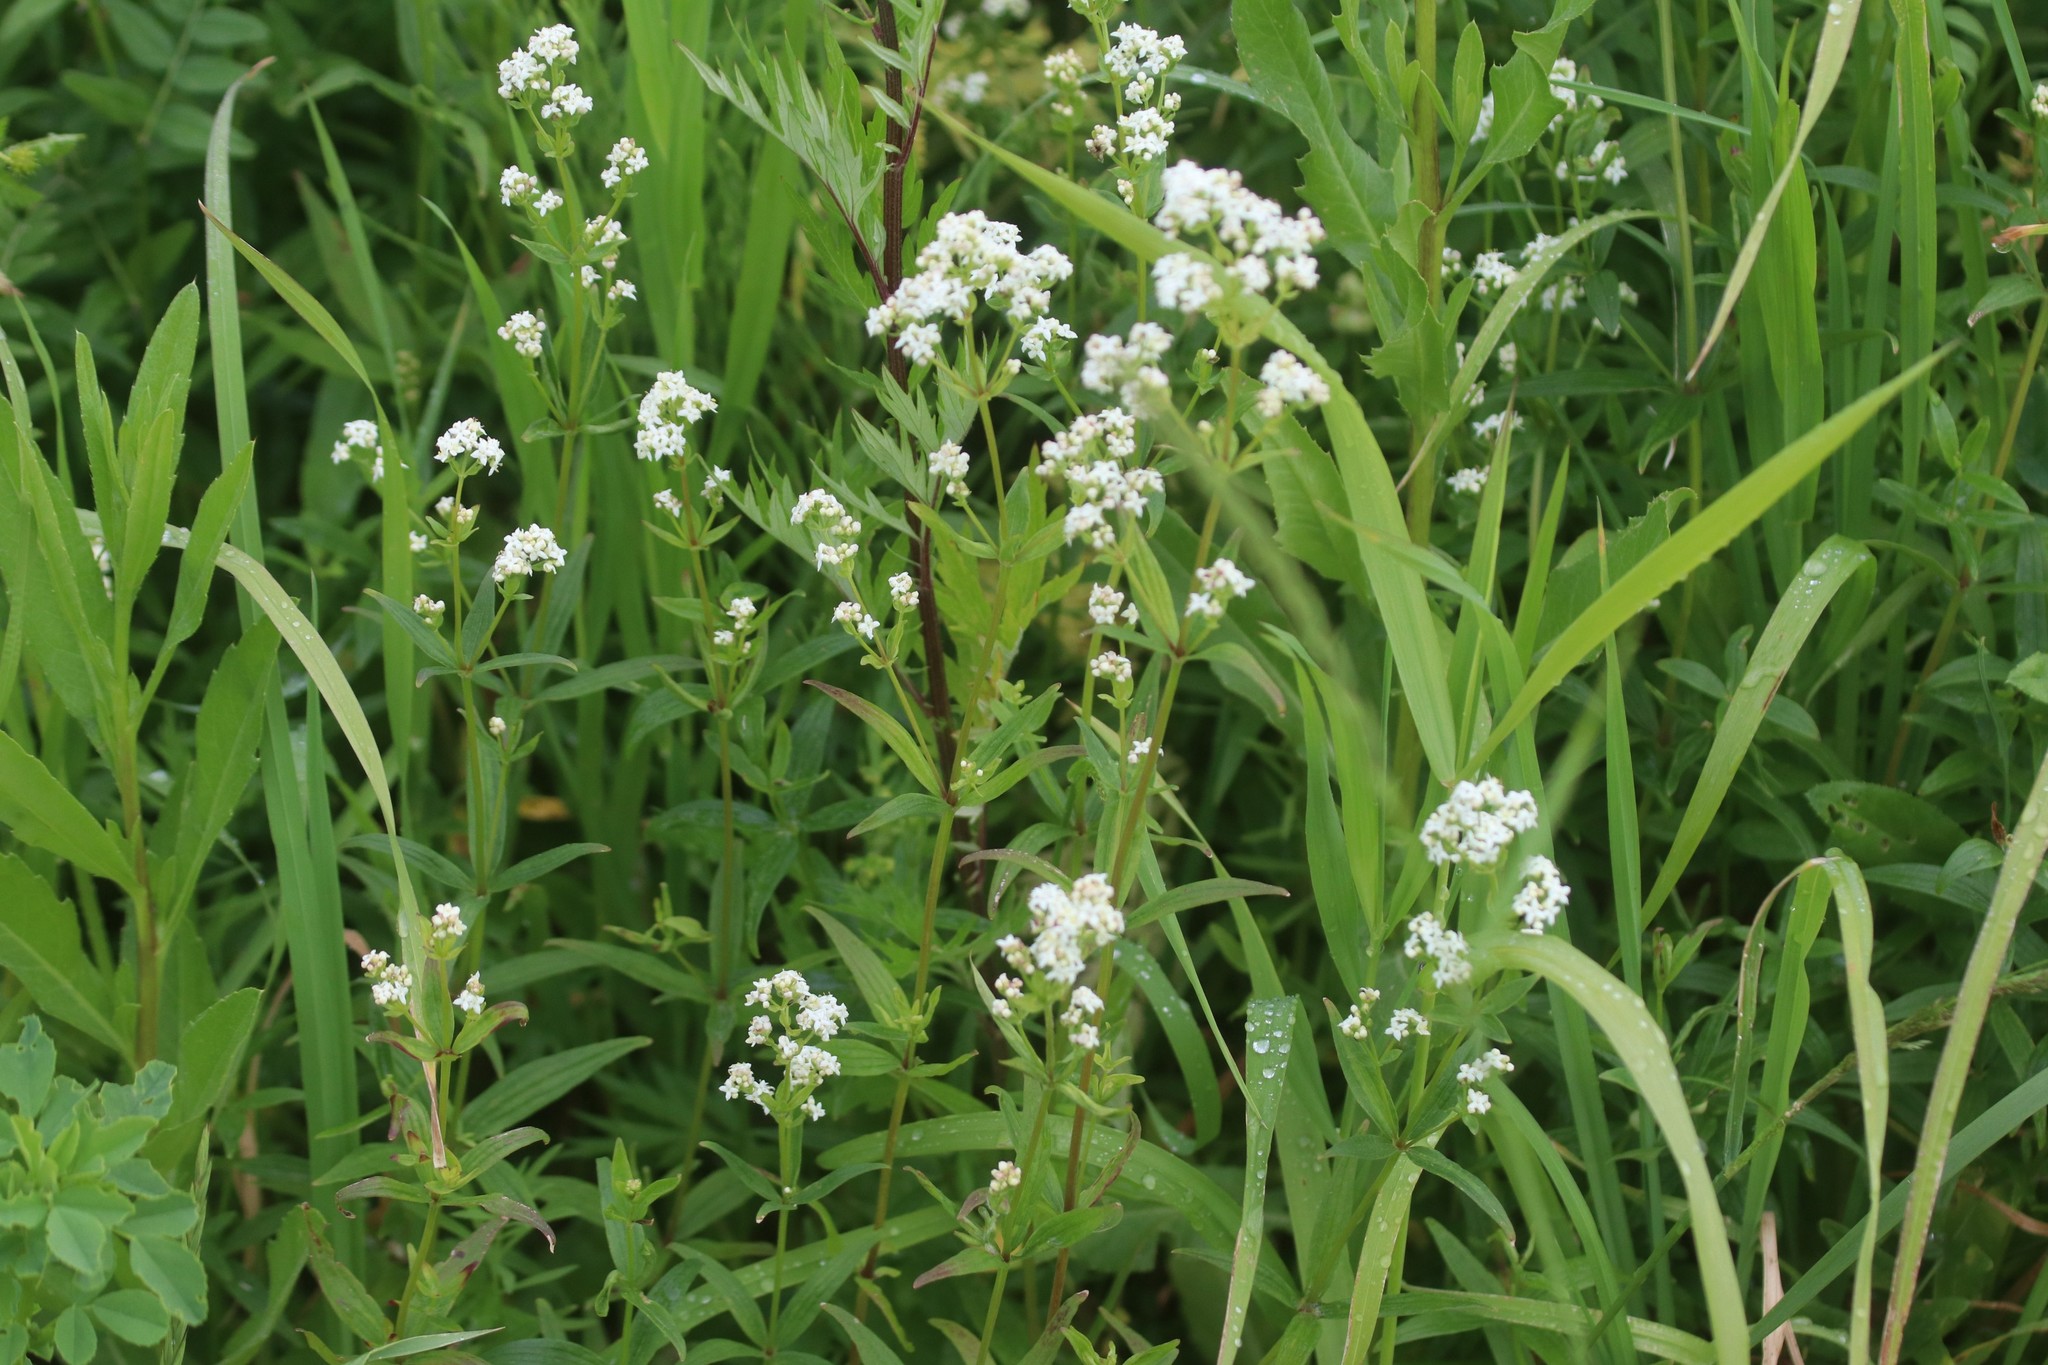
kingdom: Plantae
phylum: Tracheophyta
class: Magnoliopsida
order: Gentianales
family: Rubiaceae
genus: Galium
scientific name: Galium boreale
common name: Northern bedstraw
